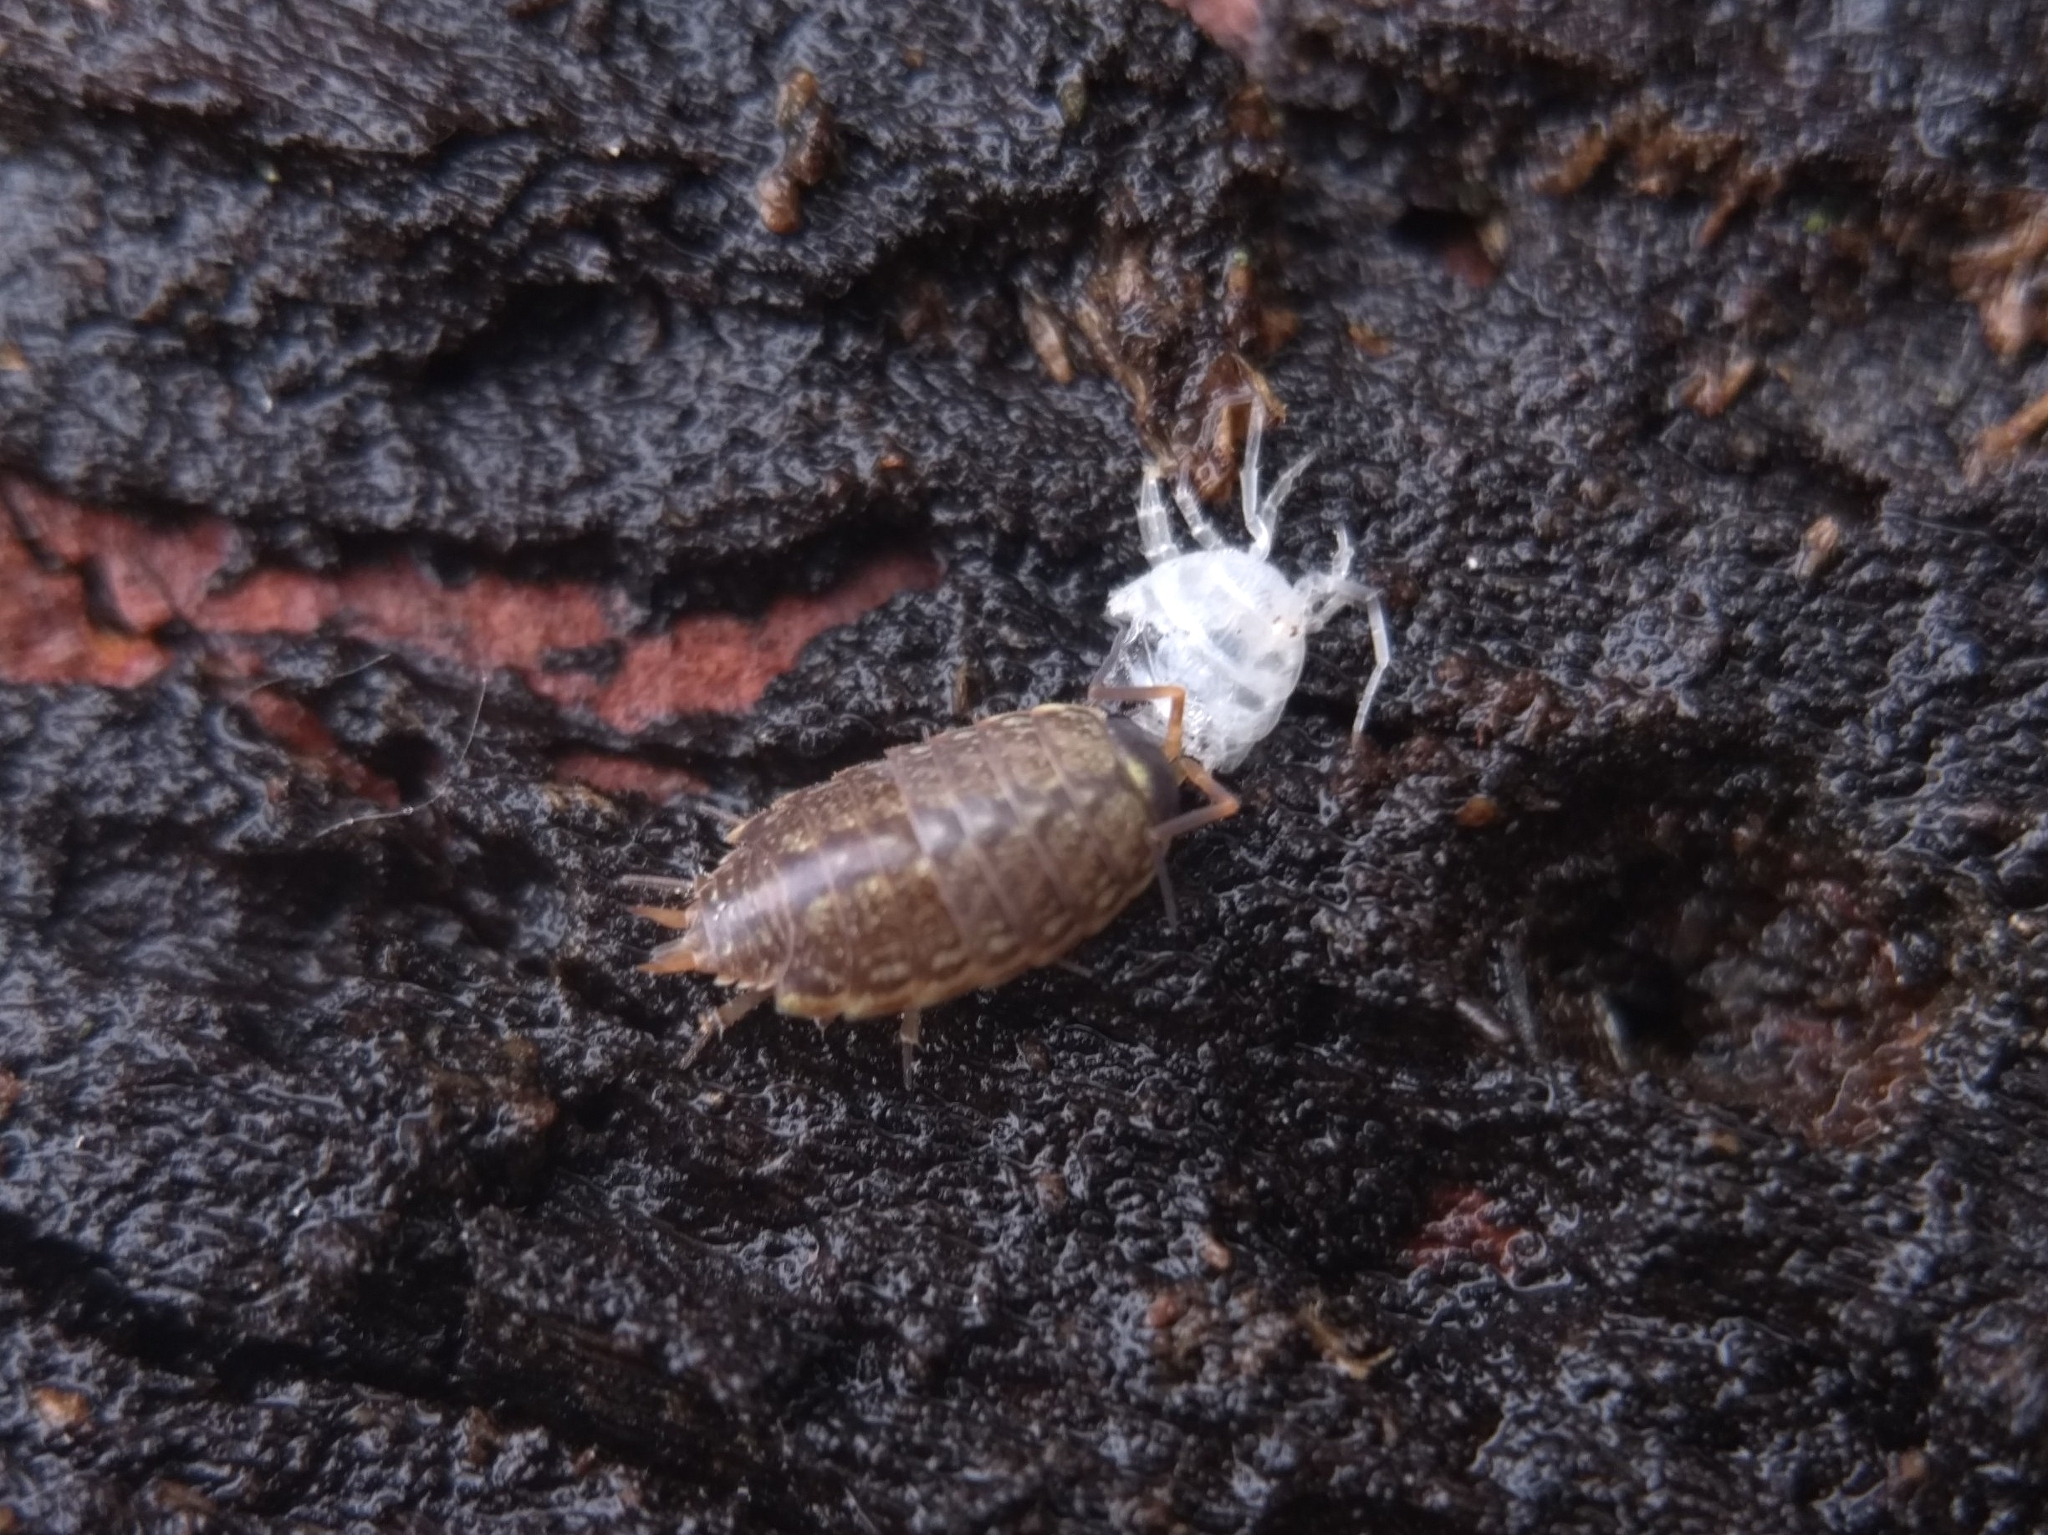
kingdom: Animalia
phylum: Arthropoda
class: Malacostraca
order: Isopoda
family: Philosciidae
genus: Philoscia
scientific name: Philoscia muscorum
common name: Common striped woodlouse
